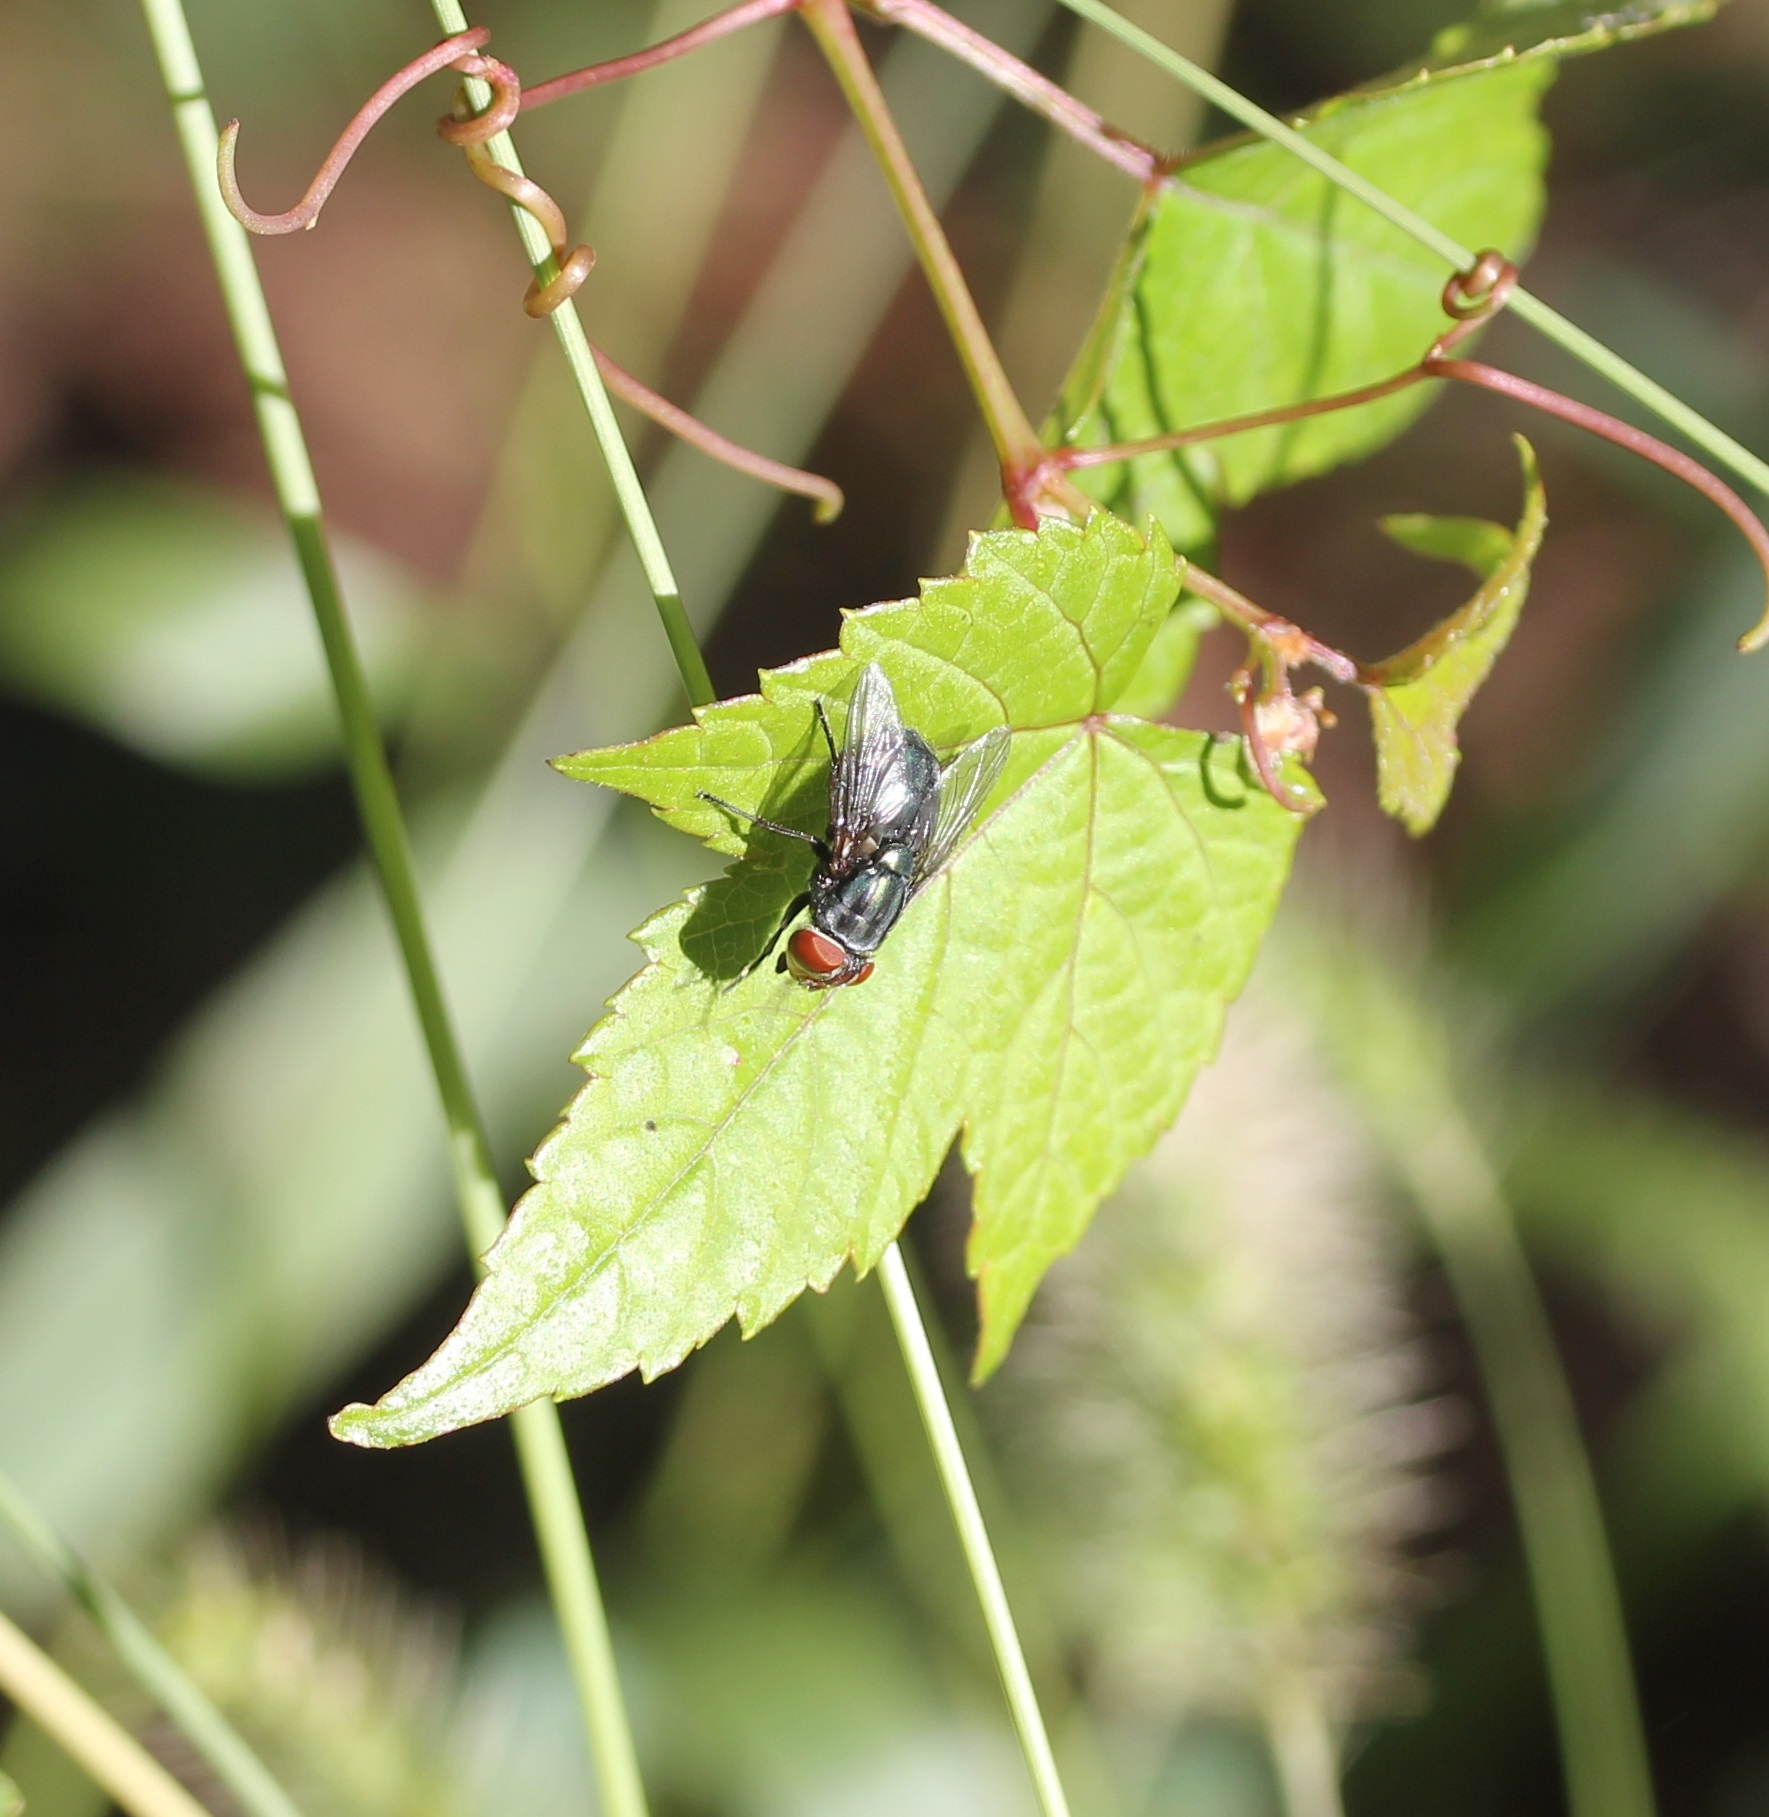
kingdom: Animalia
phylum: Arthropoda
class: Insecta
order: Diptera
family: Calliphoridae
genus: Cochliomyia
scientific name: Cochliomyia macellaria
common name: Secondary screwworm
